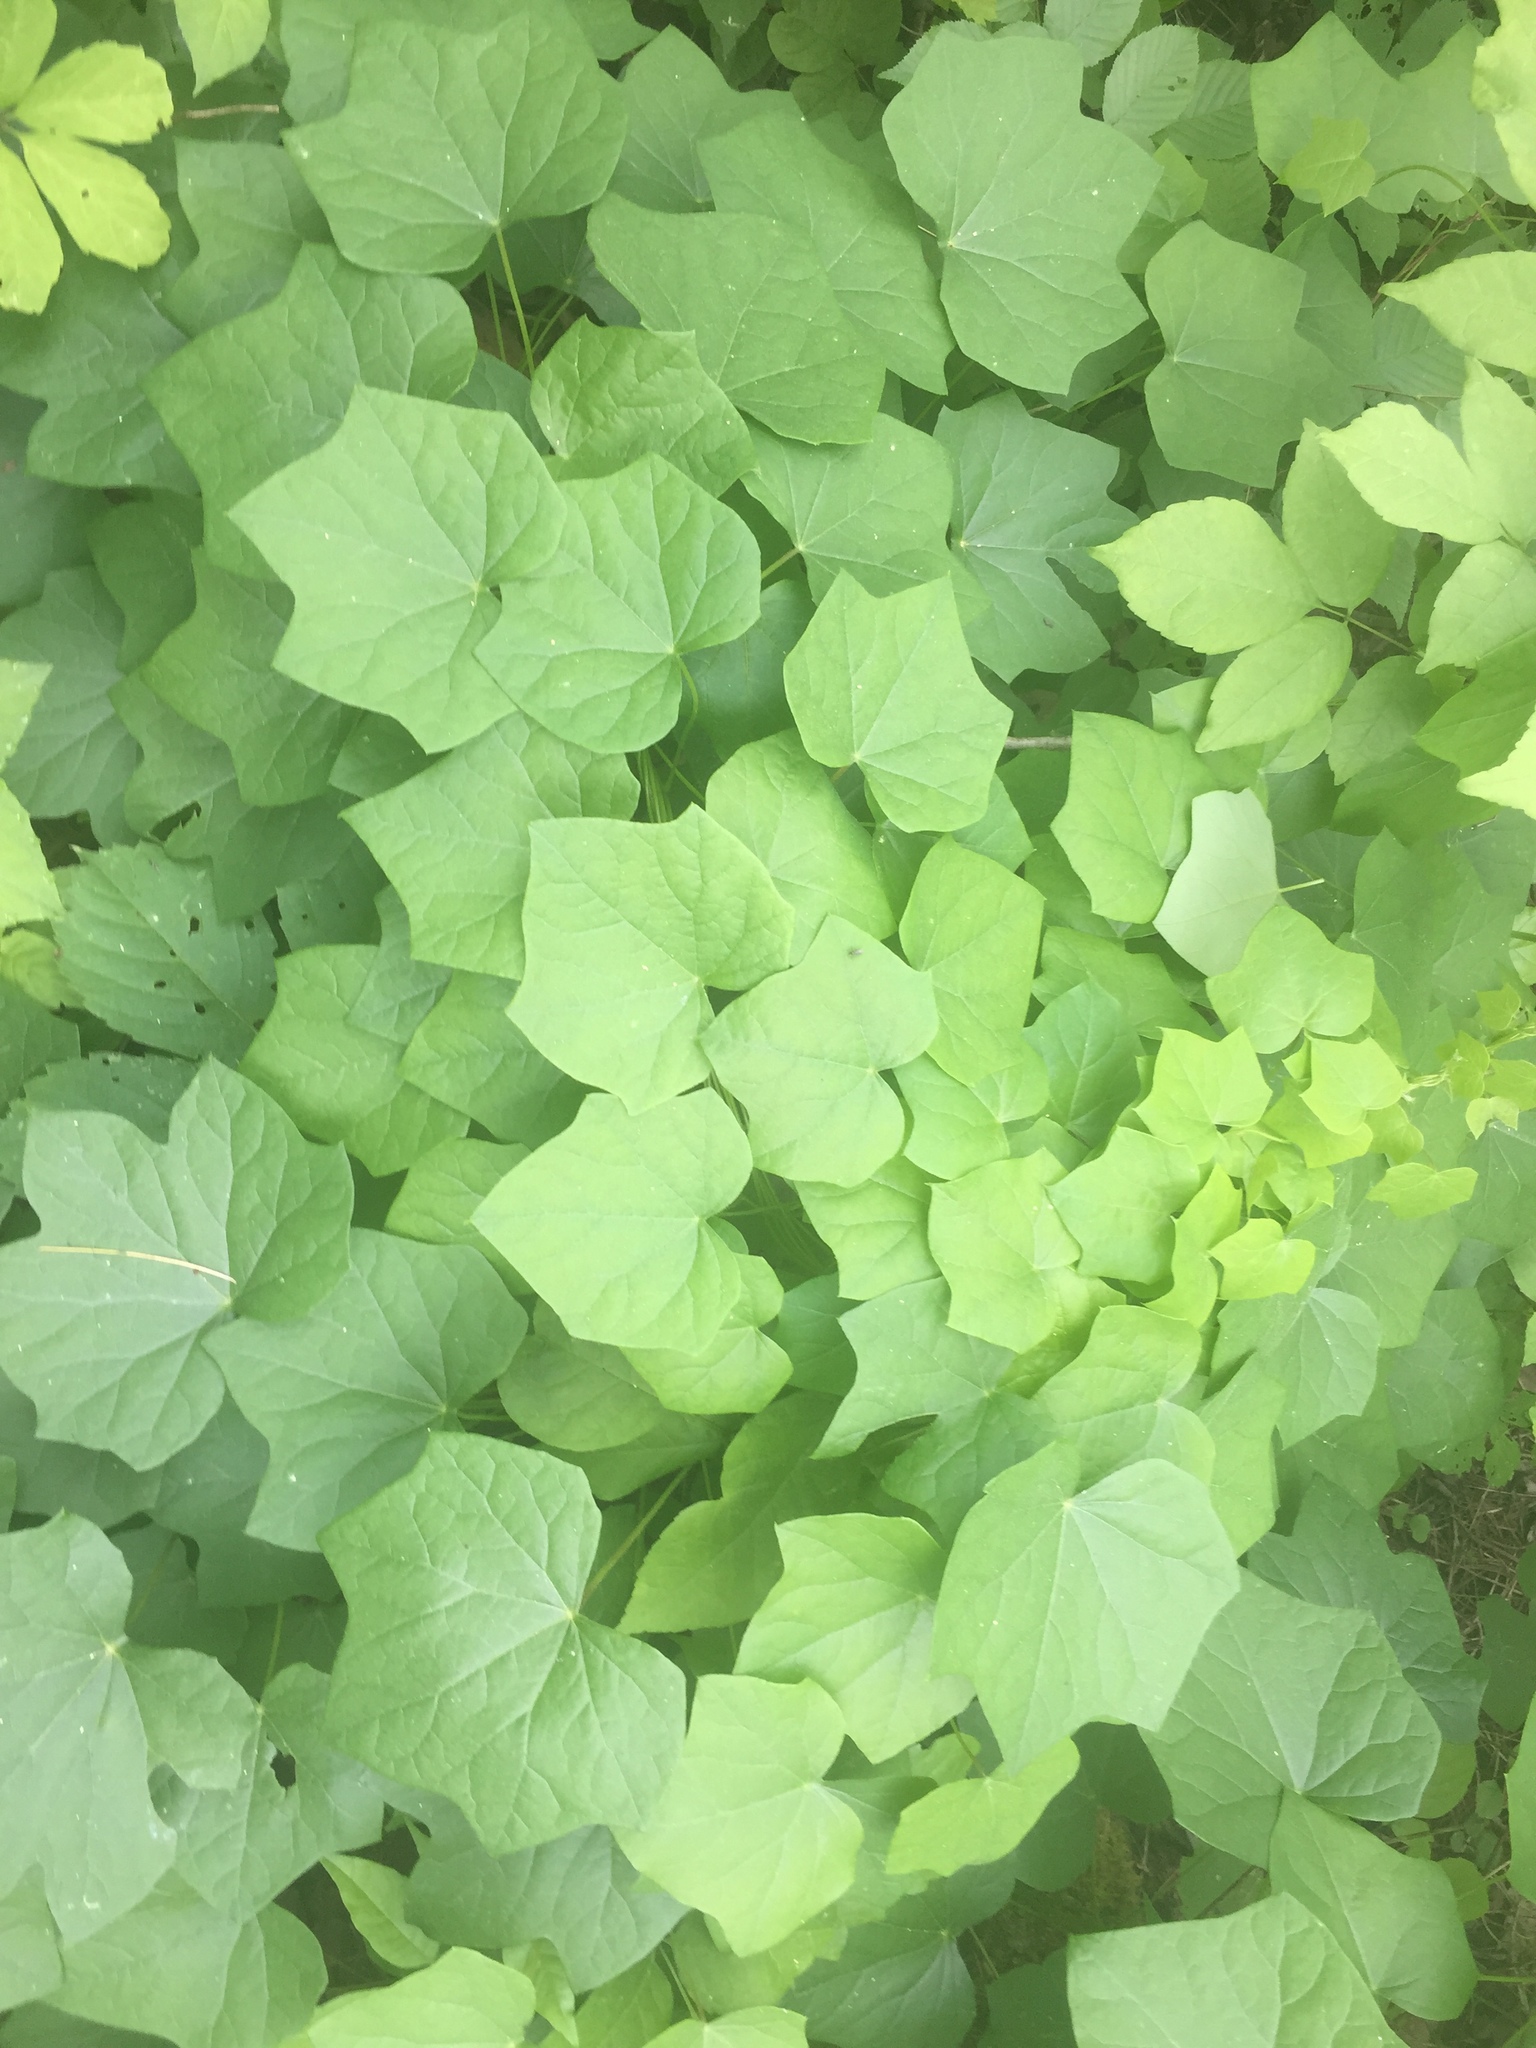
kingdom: Plantae
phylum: Tracheophyta
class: Magnoliopsida
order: Ranunculales
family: Menispermaceae
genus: Menispermum
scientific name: Menispermum canadense
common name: Moonseed
